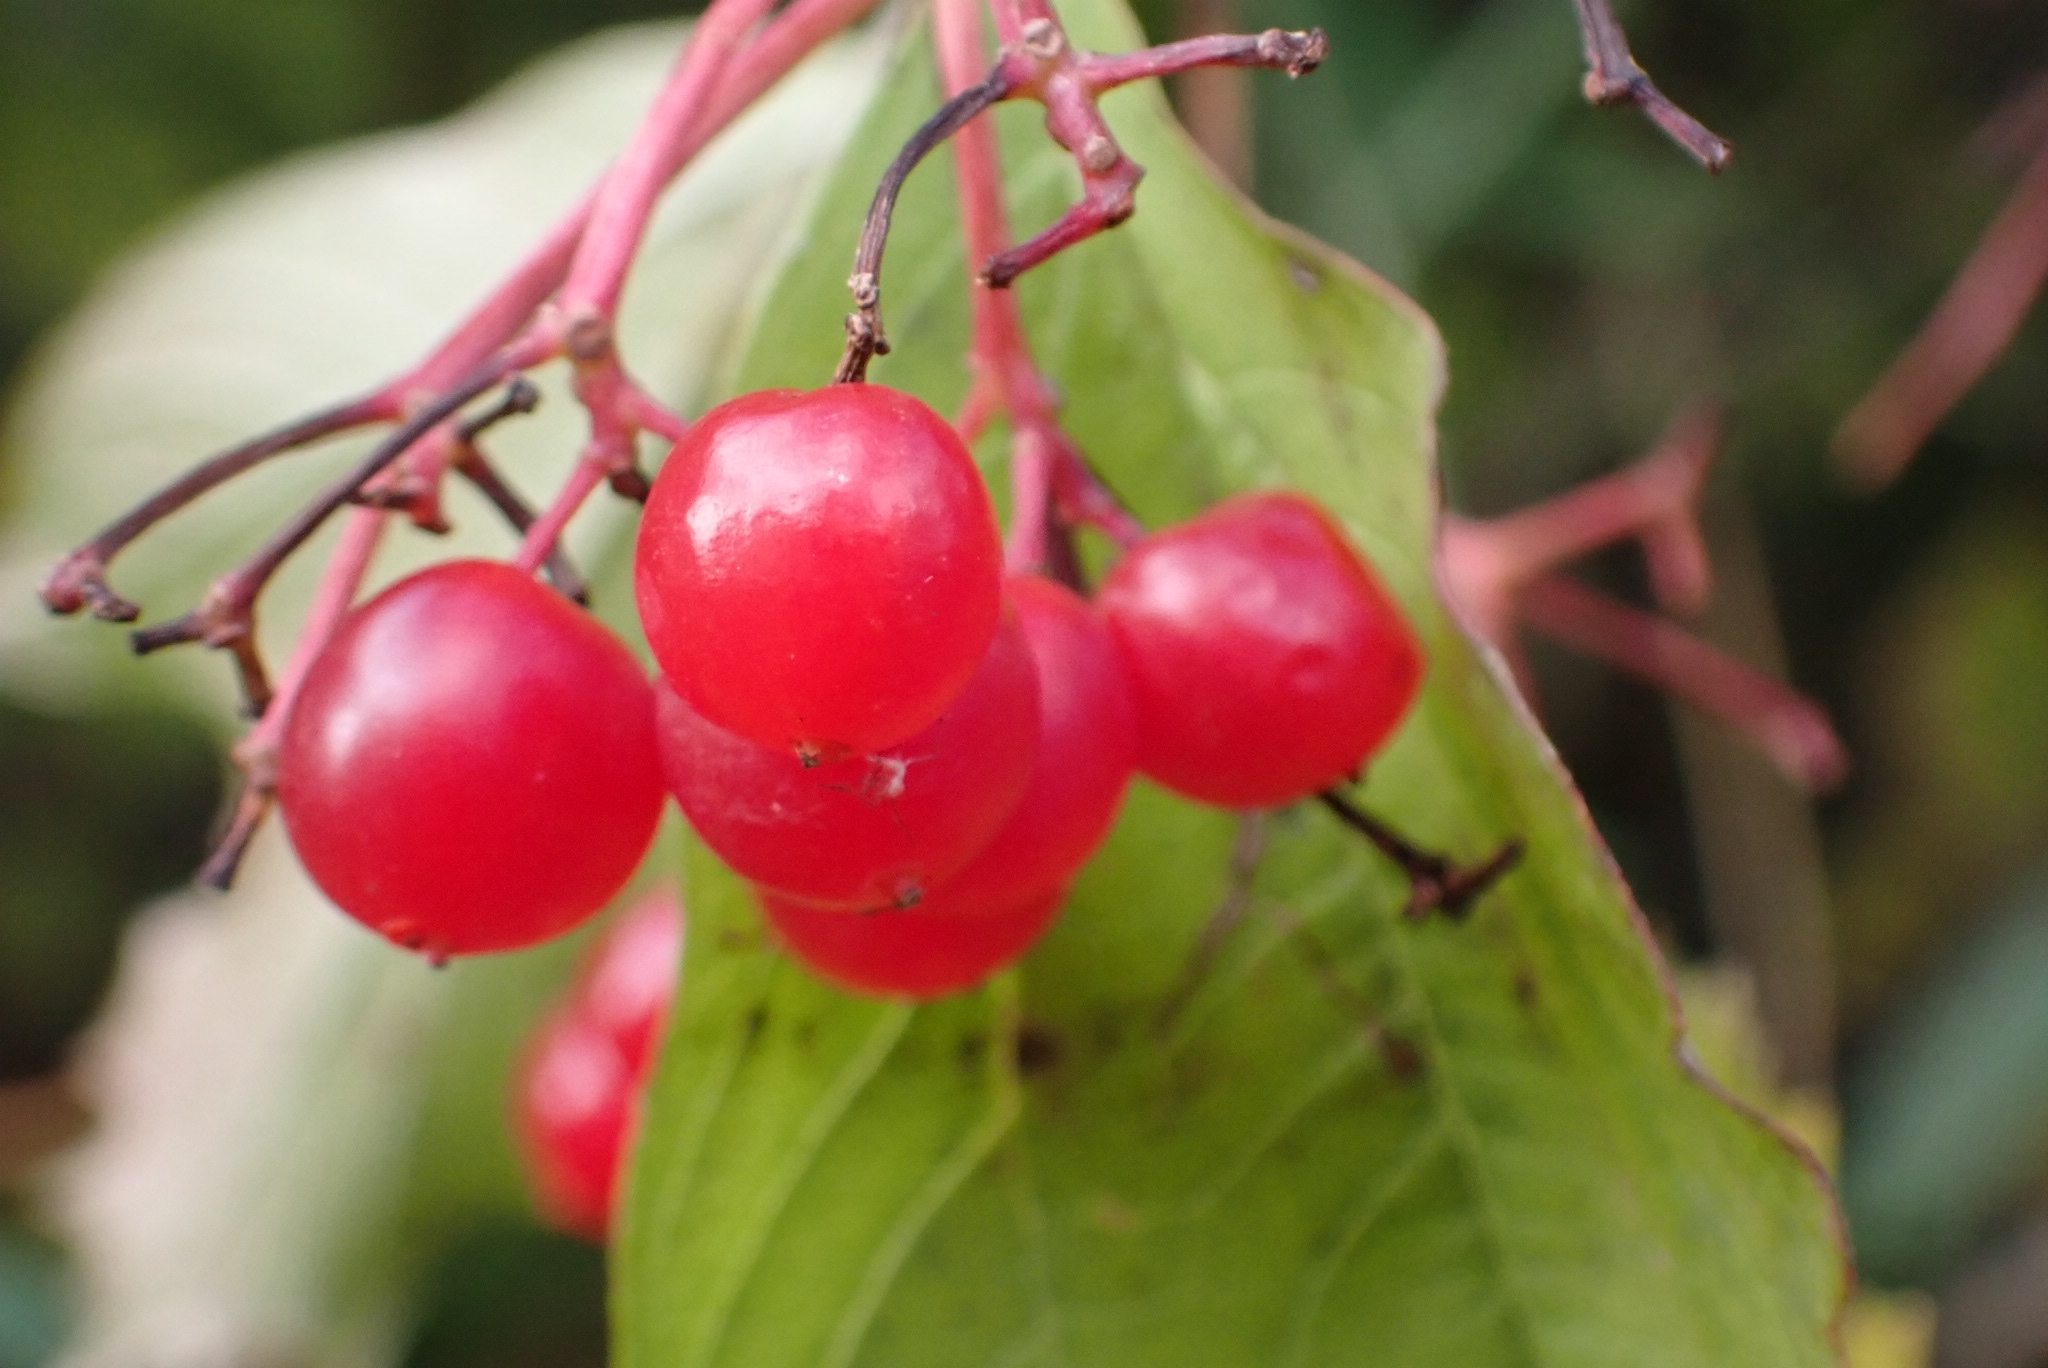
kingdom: Plantae
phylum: Tracheophyta
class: Magnoliopsida
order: Dipsacales
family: Viburnaceae
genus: Viburnum
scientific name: Viburnum opulus
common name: Guelder-rose
